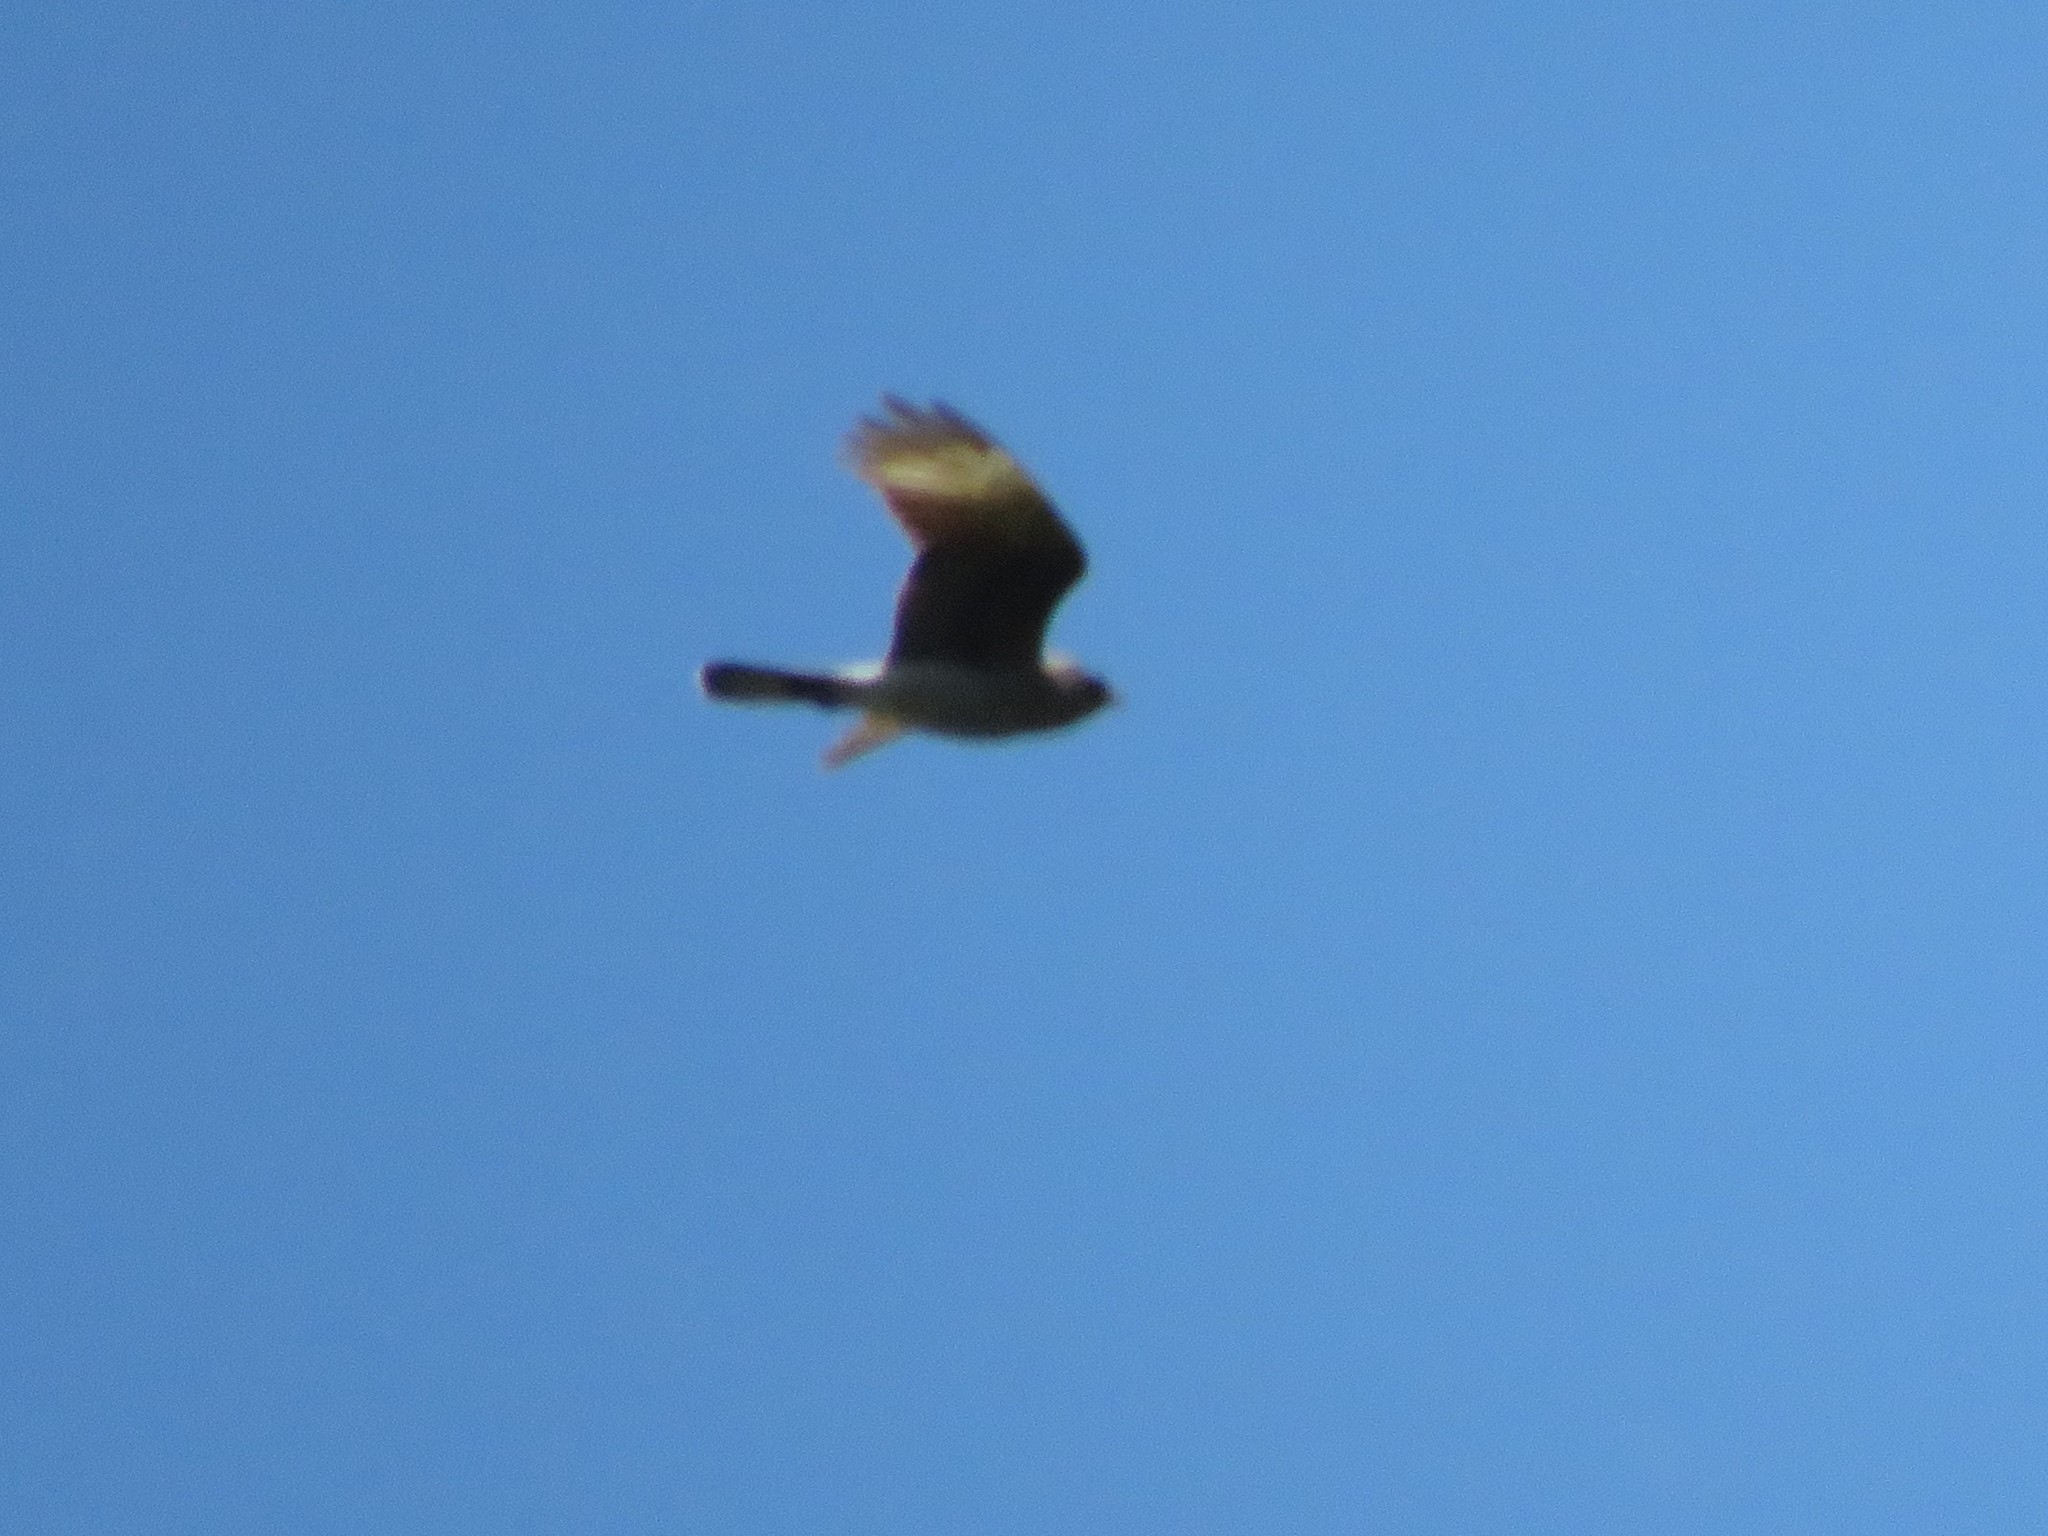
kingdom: Animalia
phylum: Chordata
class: Aves
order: Falconiformes
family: Falconidae
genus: Daptrius
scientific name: Daptrius
